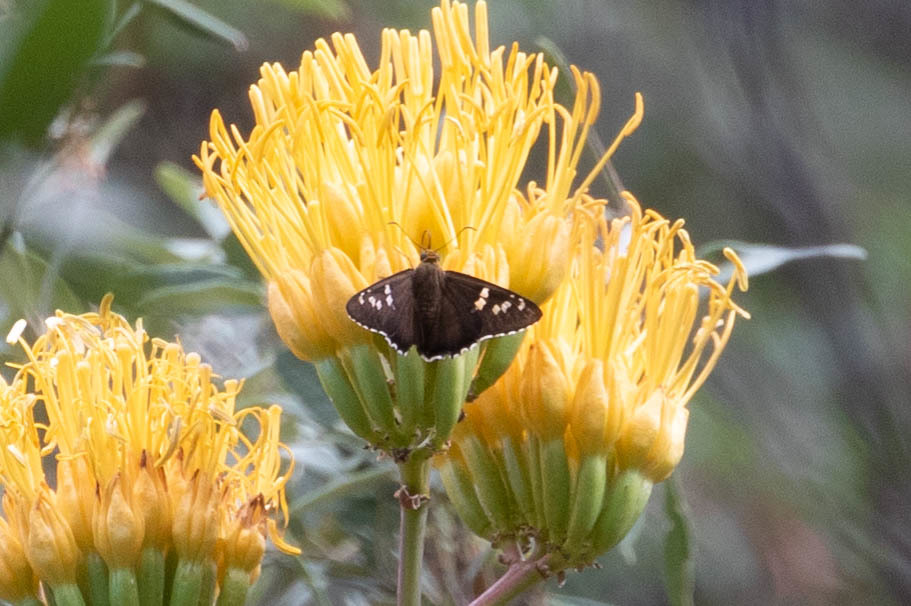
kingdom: Animalia
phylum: Arthropoda
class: Insecta
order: Lepidoptera
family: Hesperiidae
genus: Pyrrhopyge
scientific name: Pyrrhopyge araxes
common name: Dull firetip
